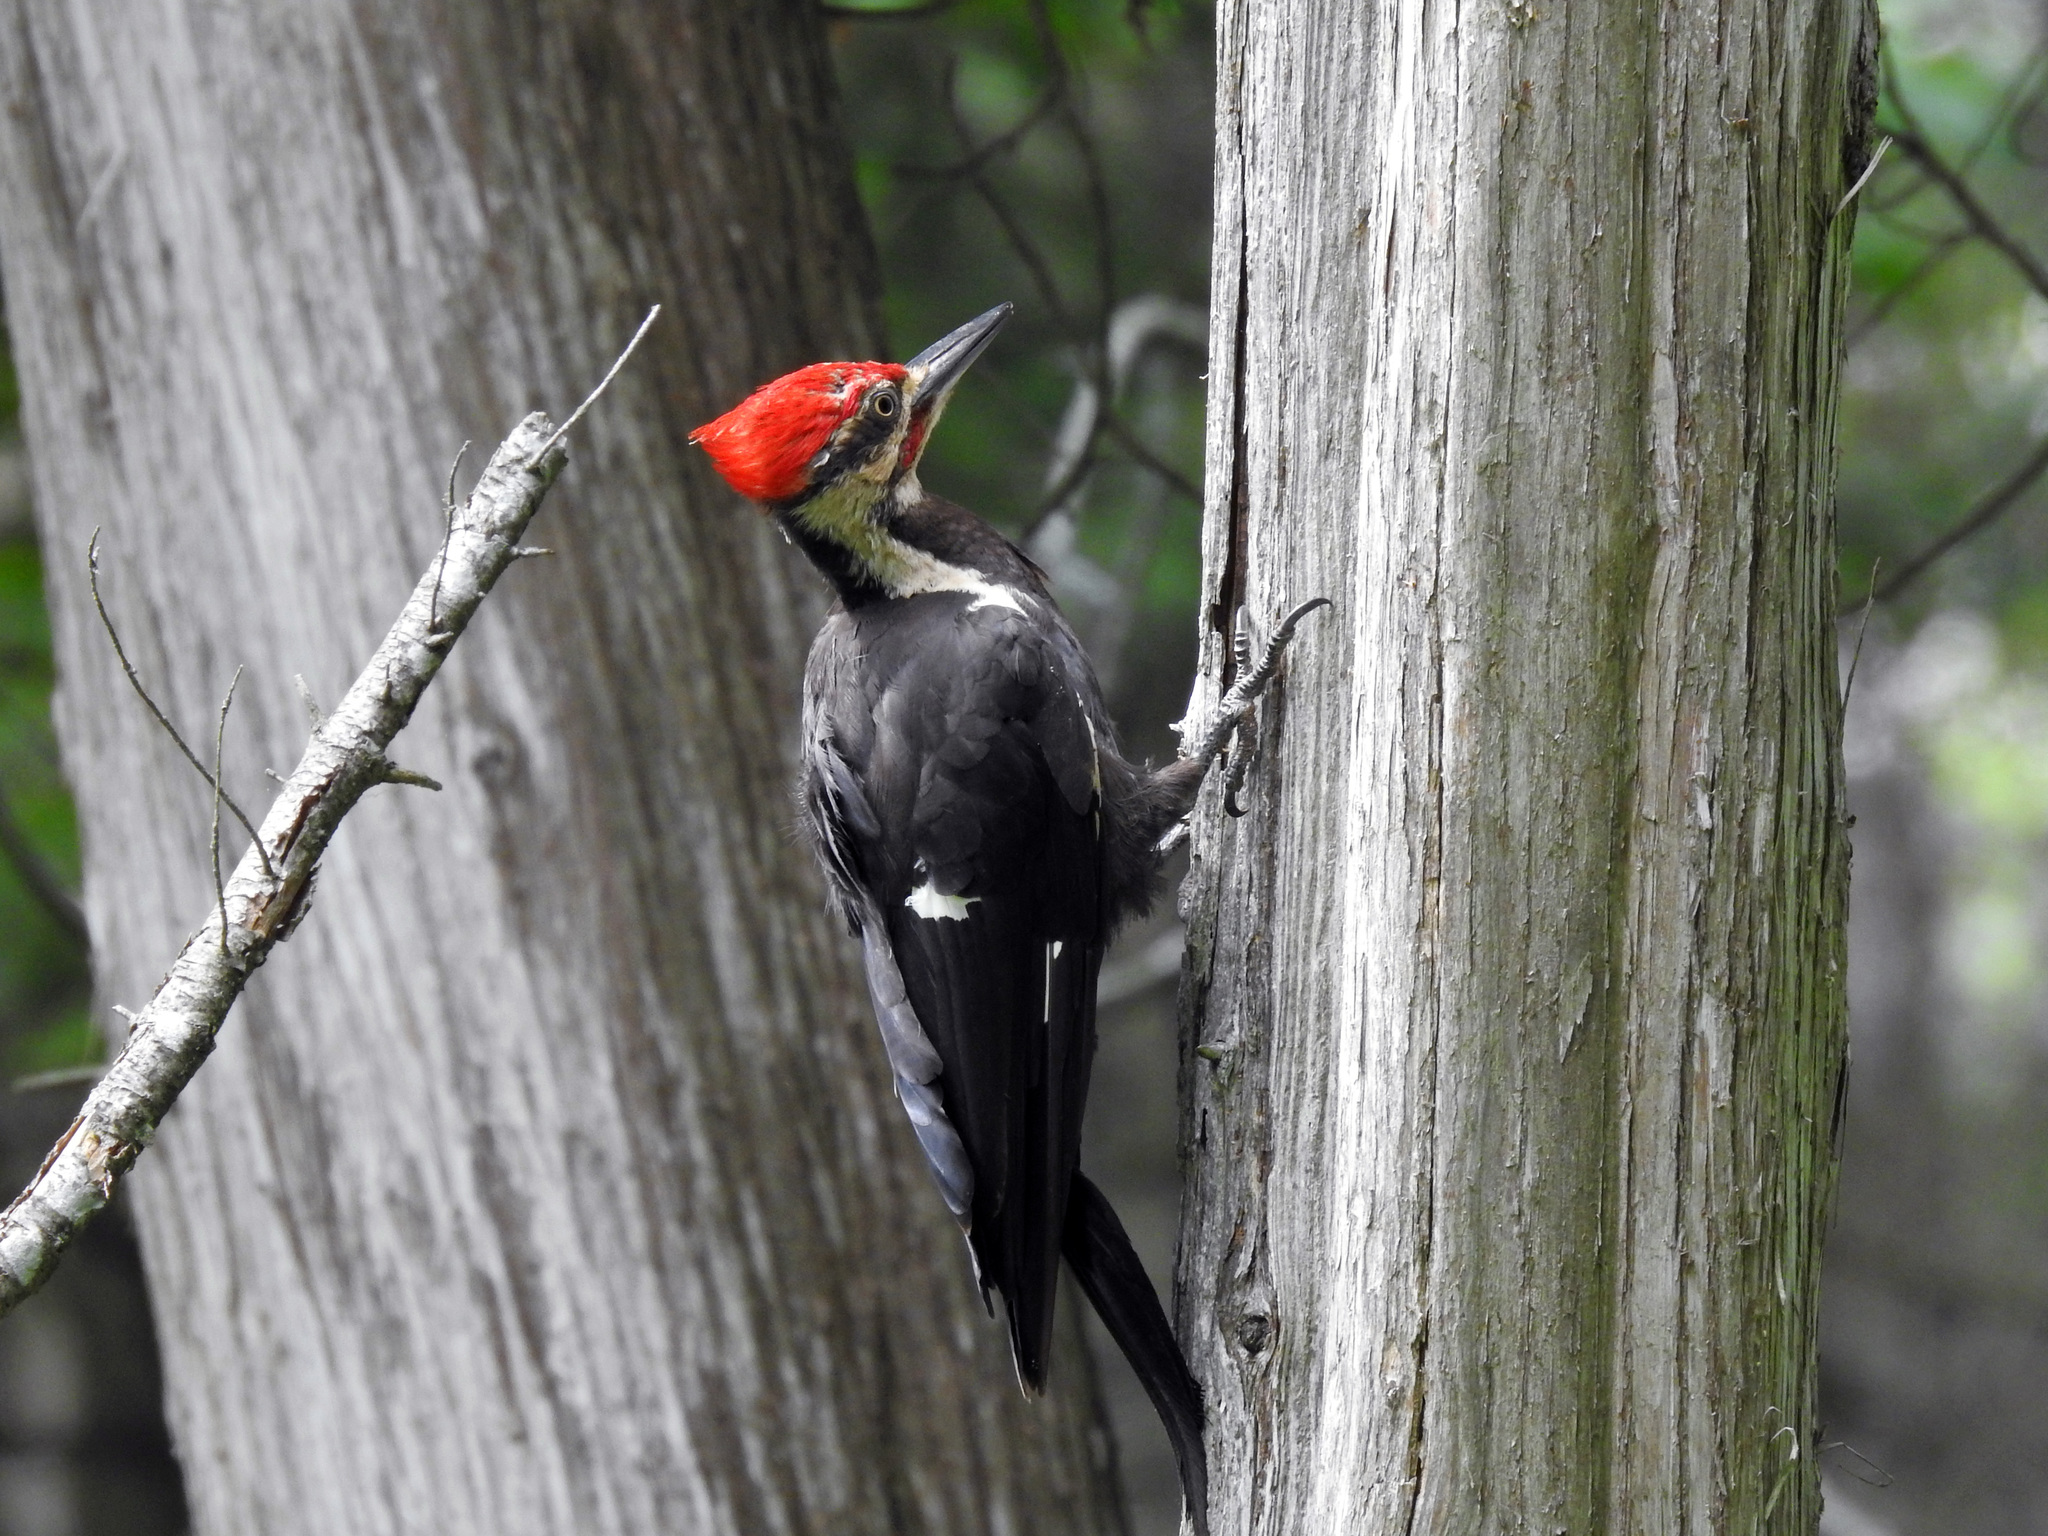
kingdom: Animalia
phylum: Chordata
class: Aves
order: Piciformes
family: Picidae
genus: Dryocopus
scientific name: Dryocopus pileatus
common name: Pileated woodpecker
